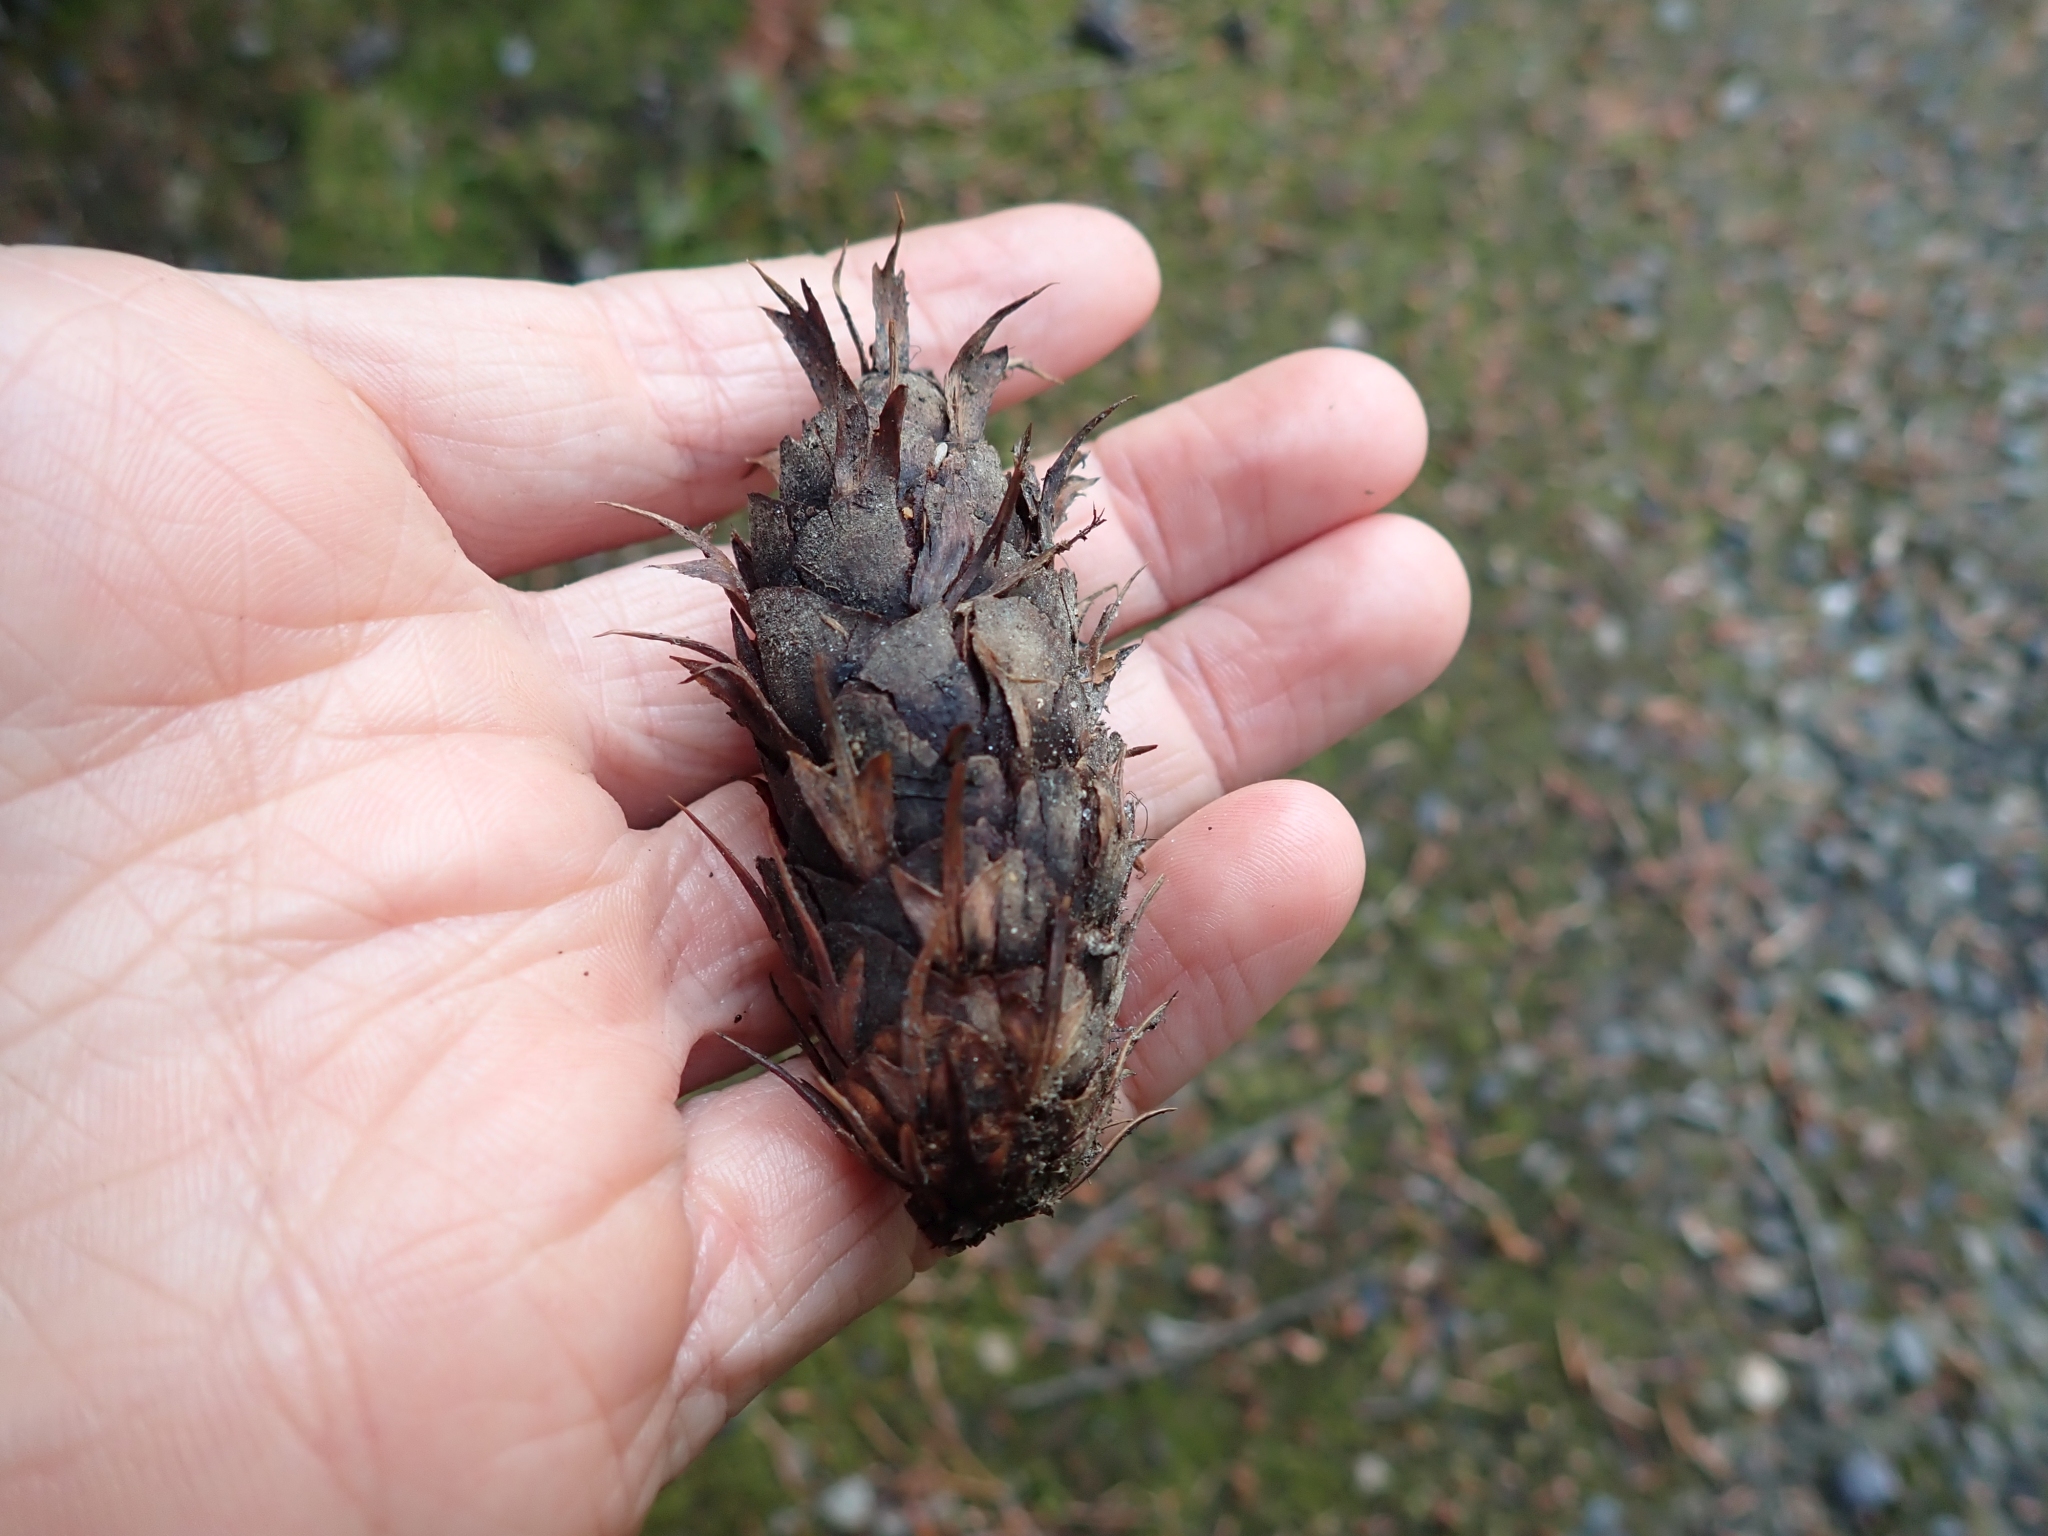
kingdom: Plantae
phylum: Tracheophyta
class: Pinopsida
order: Pinales
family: Pinaceae
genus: Pseudotsuga
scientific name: Pseudotsuga menziesii
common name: Douglas fir
